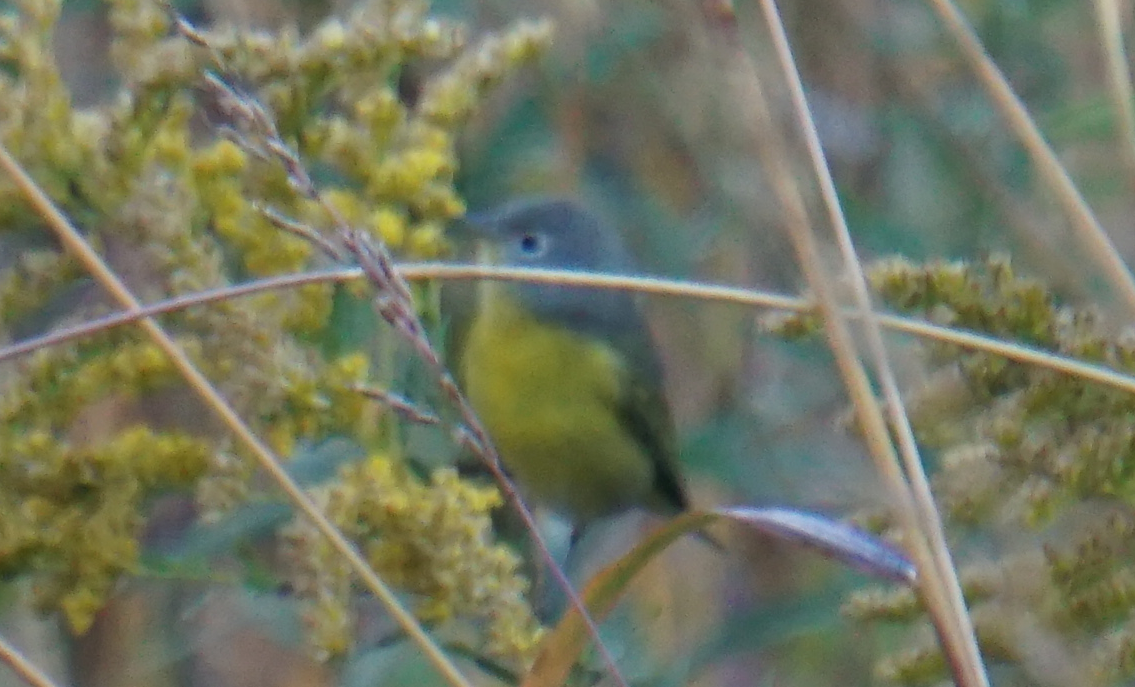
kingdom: Animalia
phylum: Chordata
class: Aves
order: Passeriformes
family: Parulidae
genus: Leiothlypis
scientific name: Leiothlypis ruficapilla
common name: Nashville warbler
